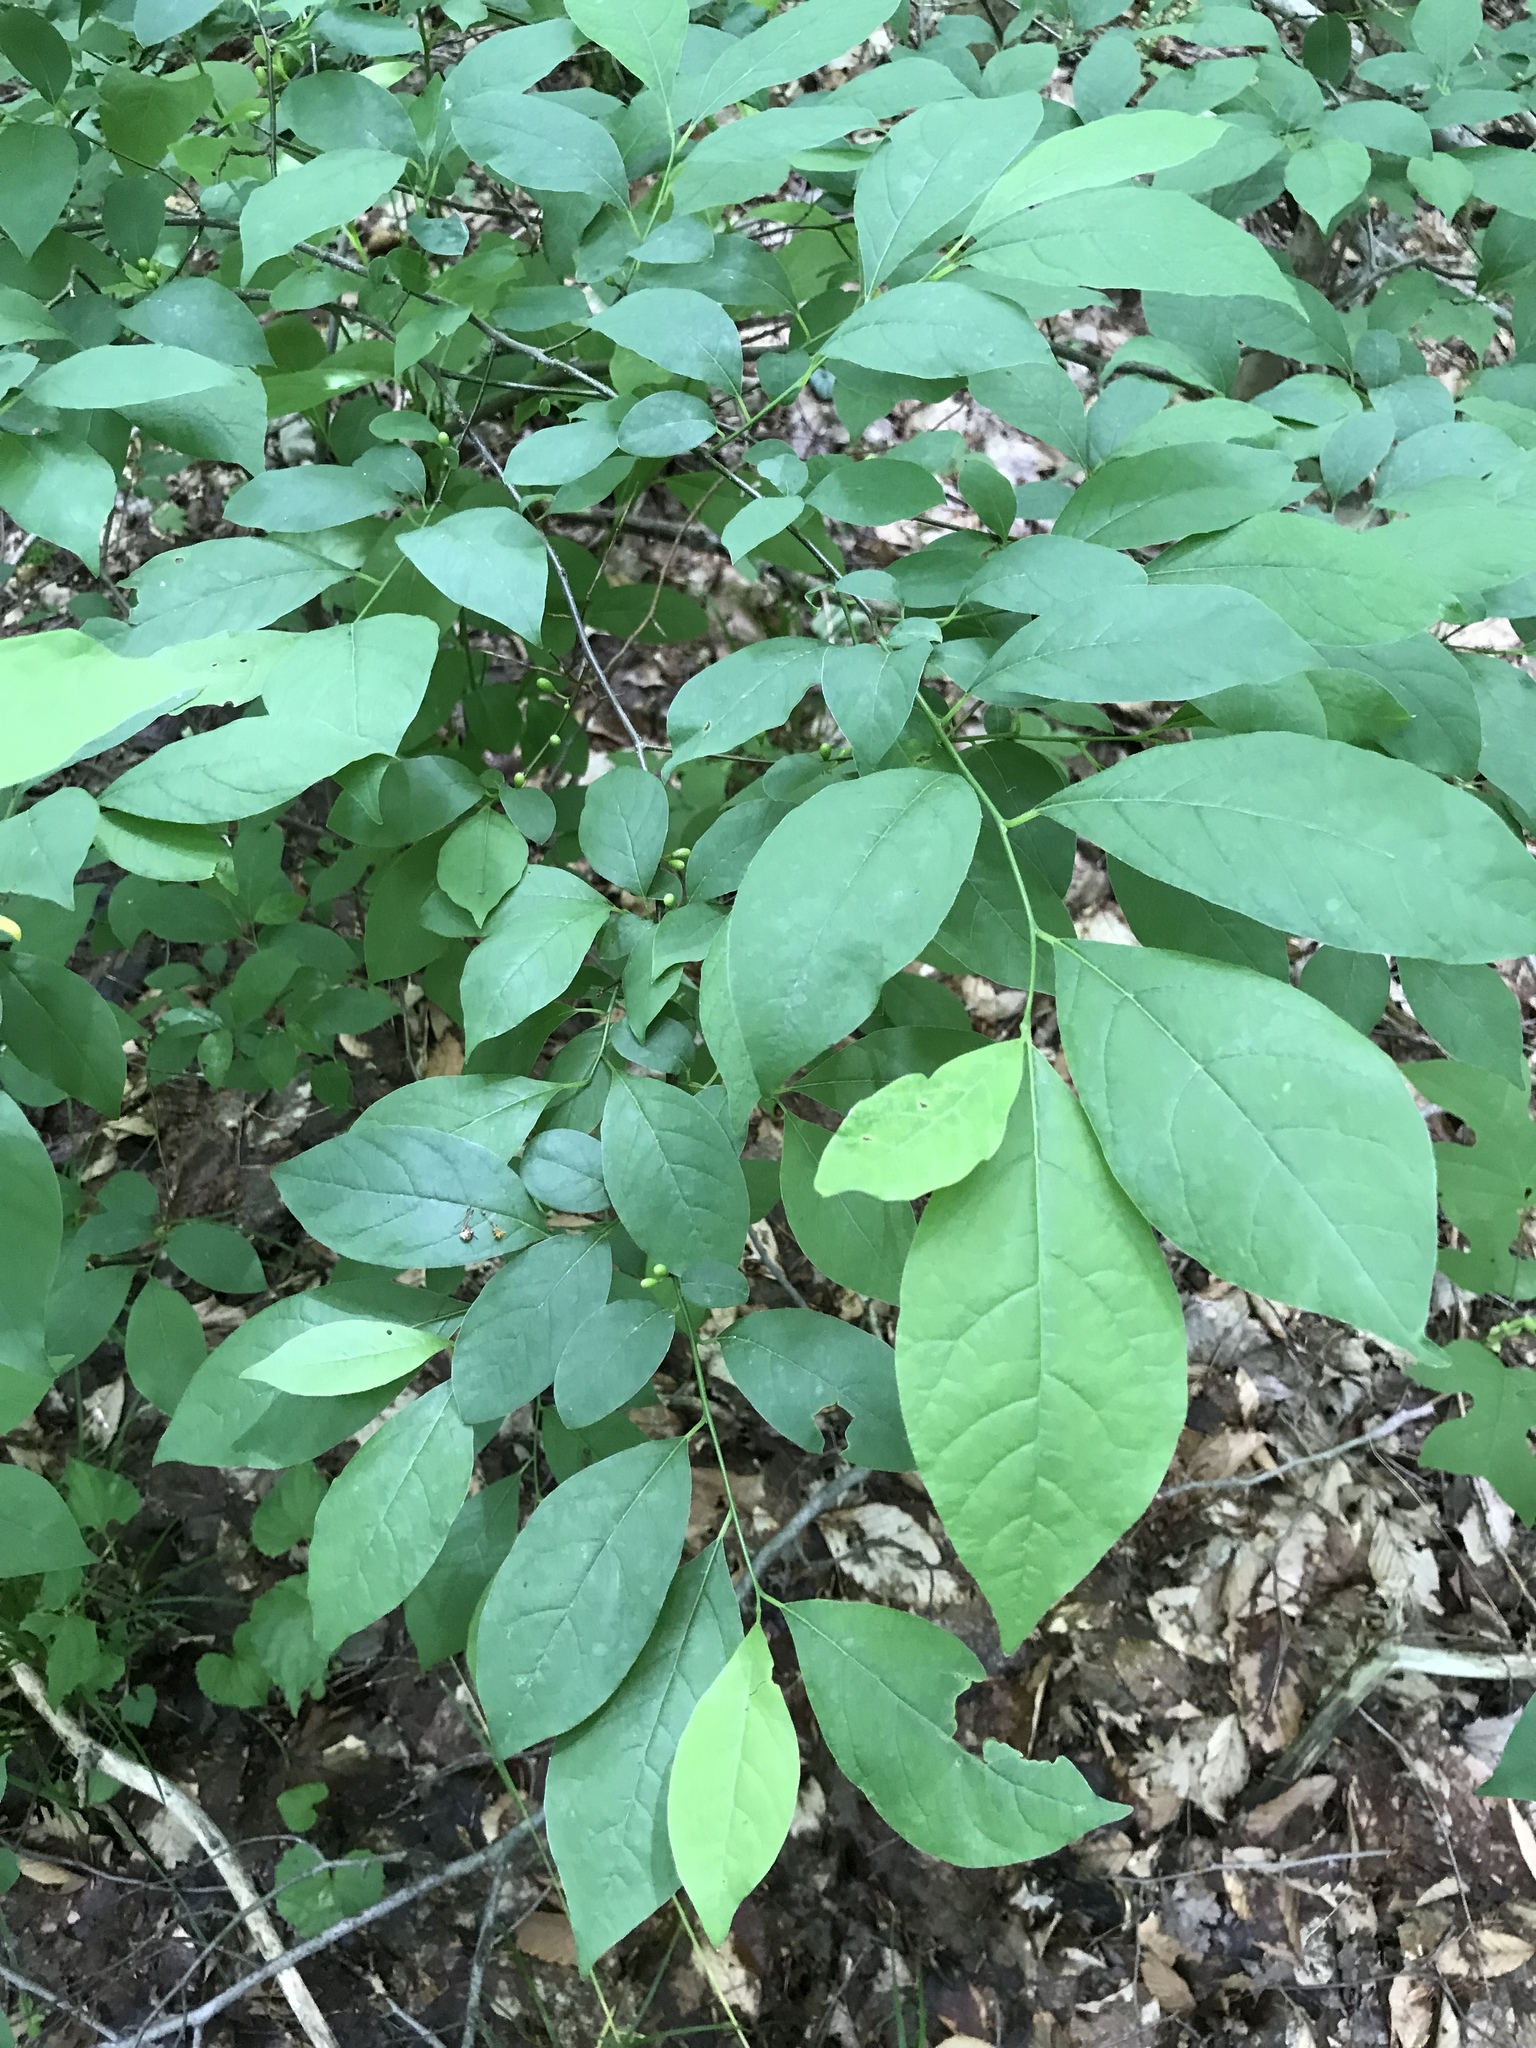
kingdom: Plantae
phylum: Tracheophyta
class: Magnoliopsida
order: Laurales
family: Lauraceae
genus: Lindera
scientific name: Lindera benzoin
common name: Spicebush
